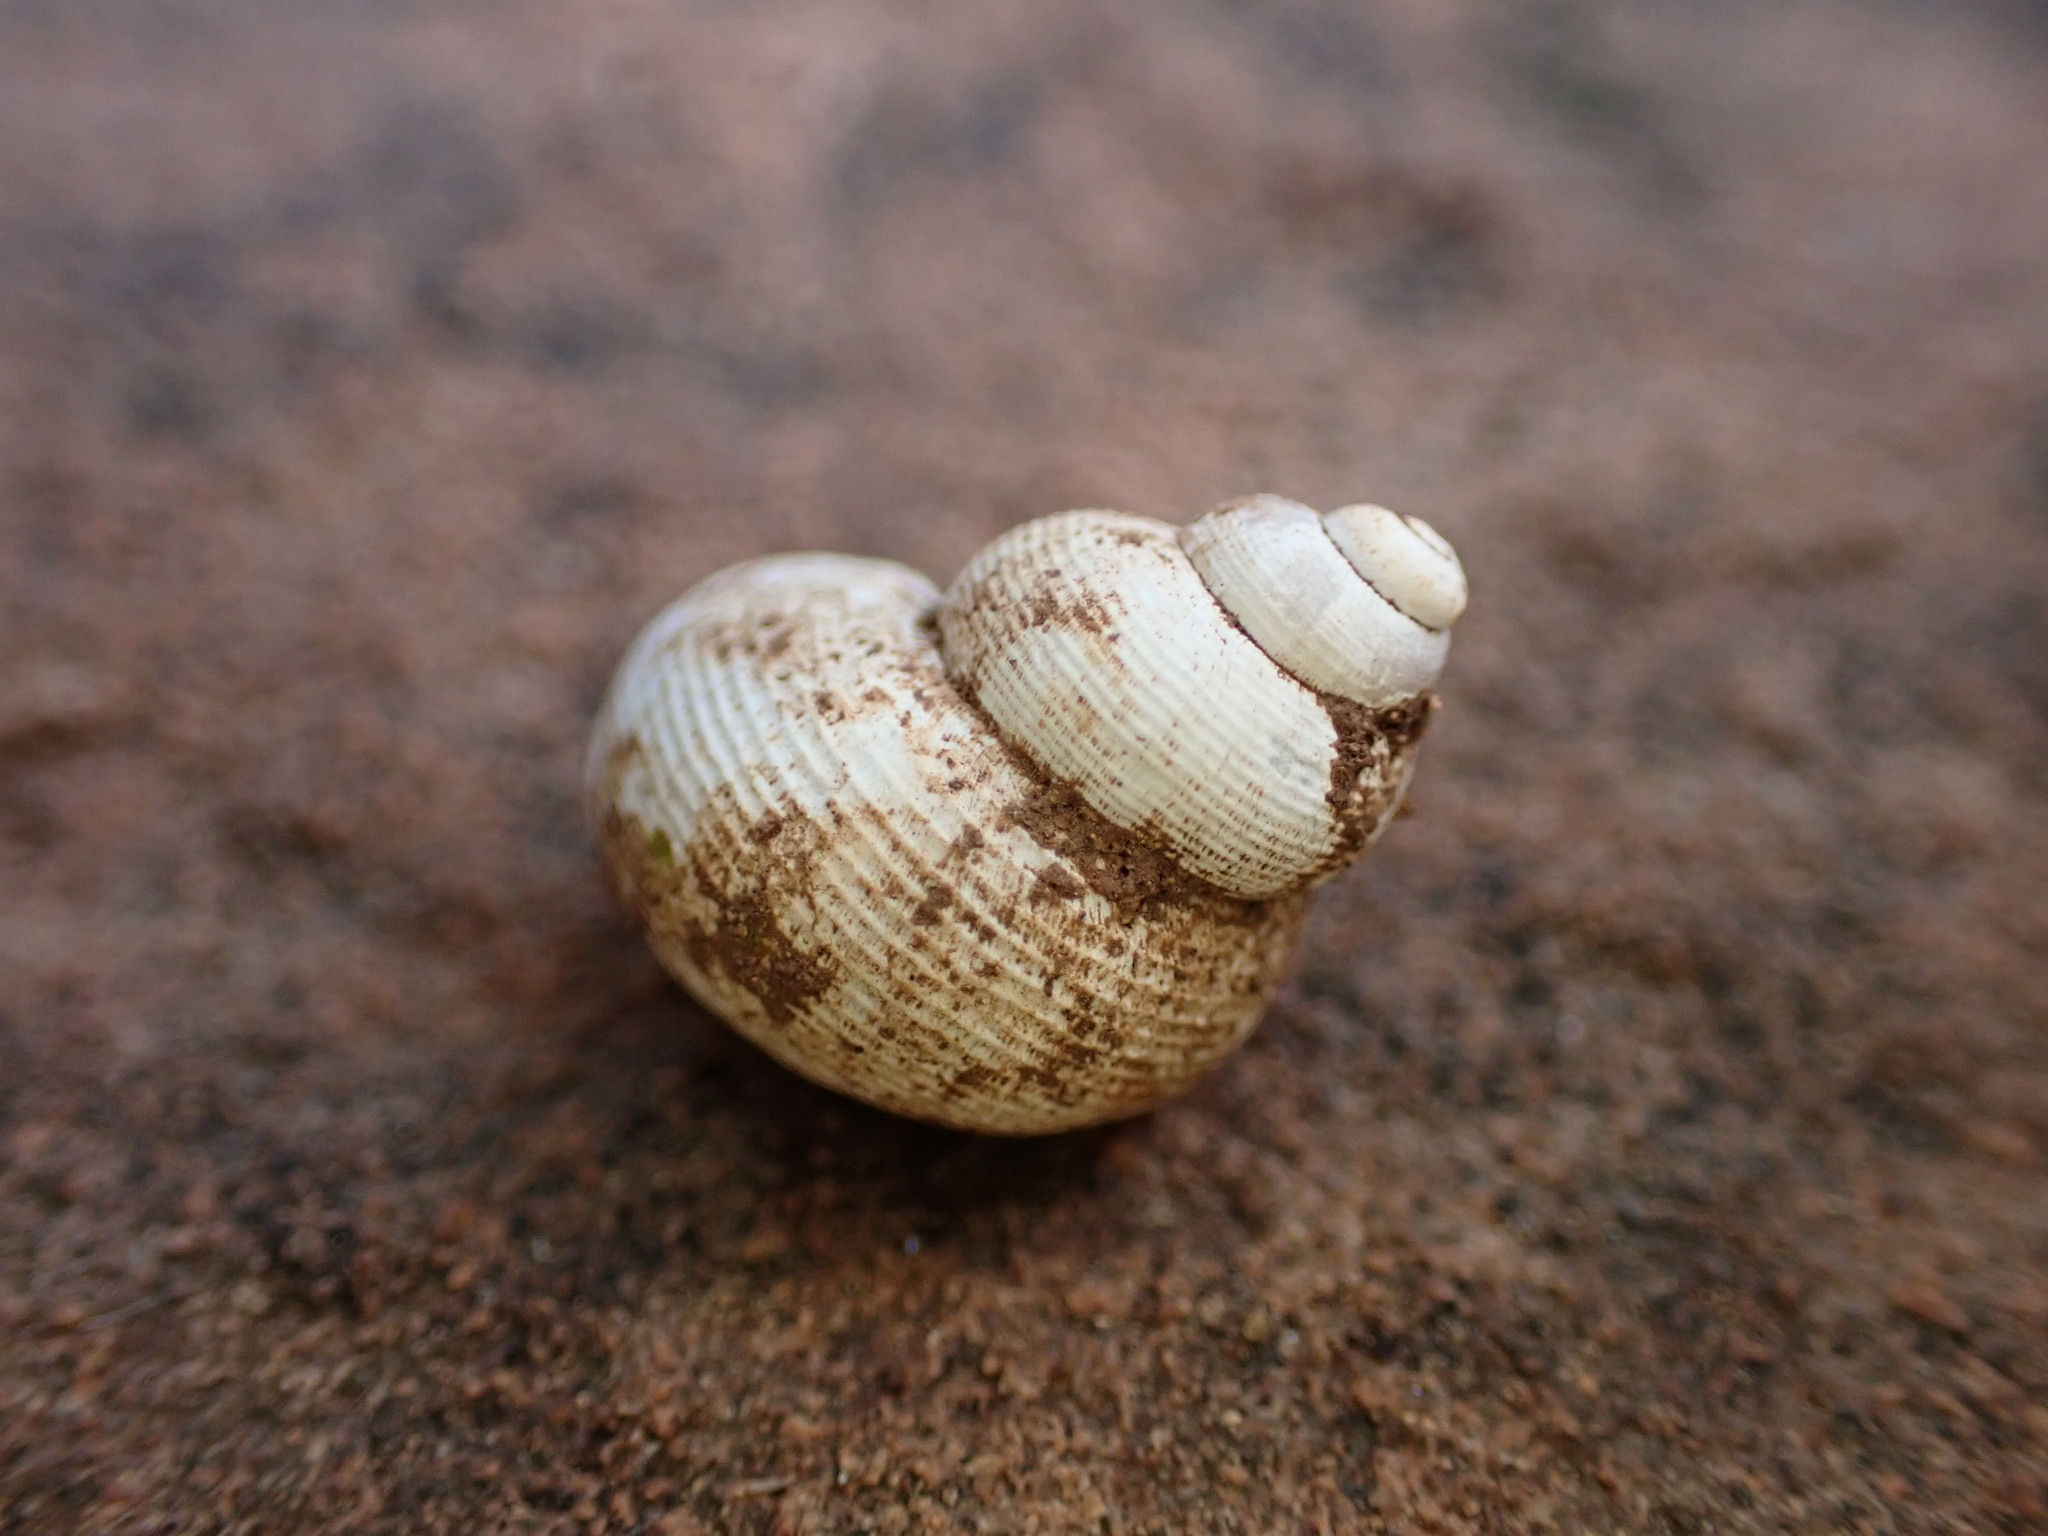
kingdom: Animalia
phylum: Mollusca
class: Gastropoda
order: Littorinimorpha
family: Pomatiidae
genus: Pomatias
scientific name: Pomatias elegans
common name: Red-mouthed snail
